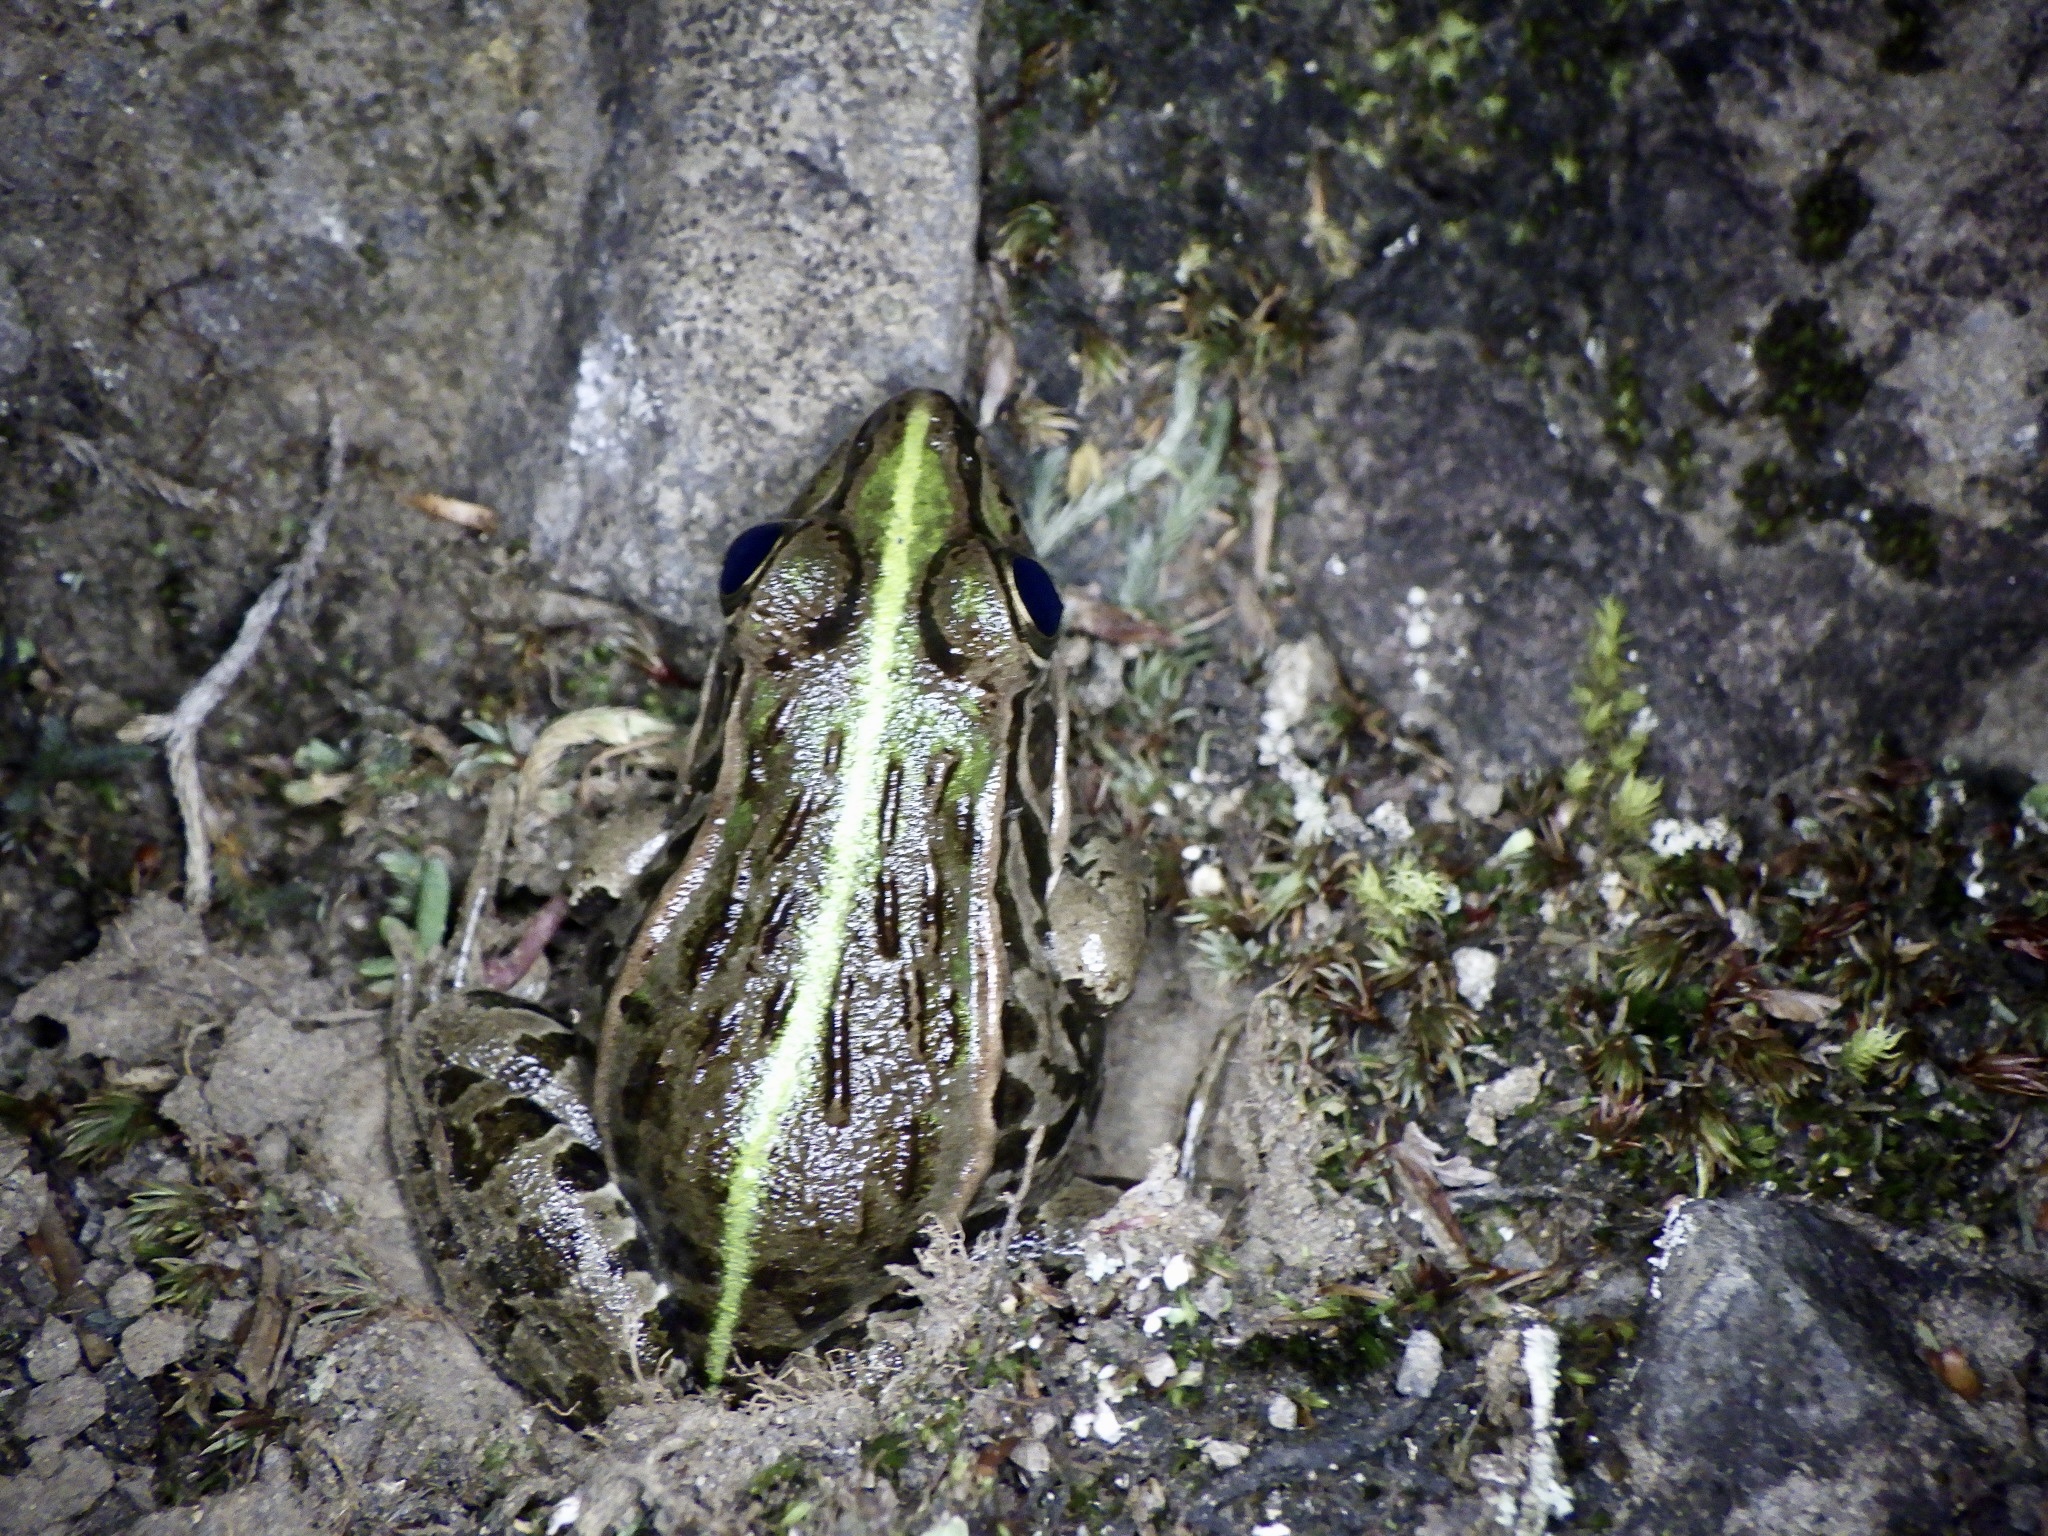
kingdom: Animalia
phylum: Chordata
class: Amphibia
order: Anura
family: Ranidae
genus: Pelophylax
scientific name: Pelophylax nigromaculatus
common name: Black-spotted pond frog
